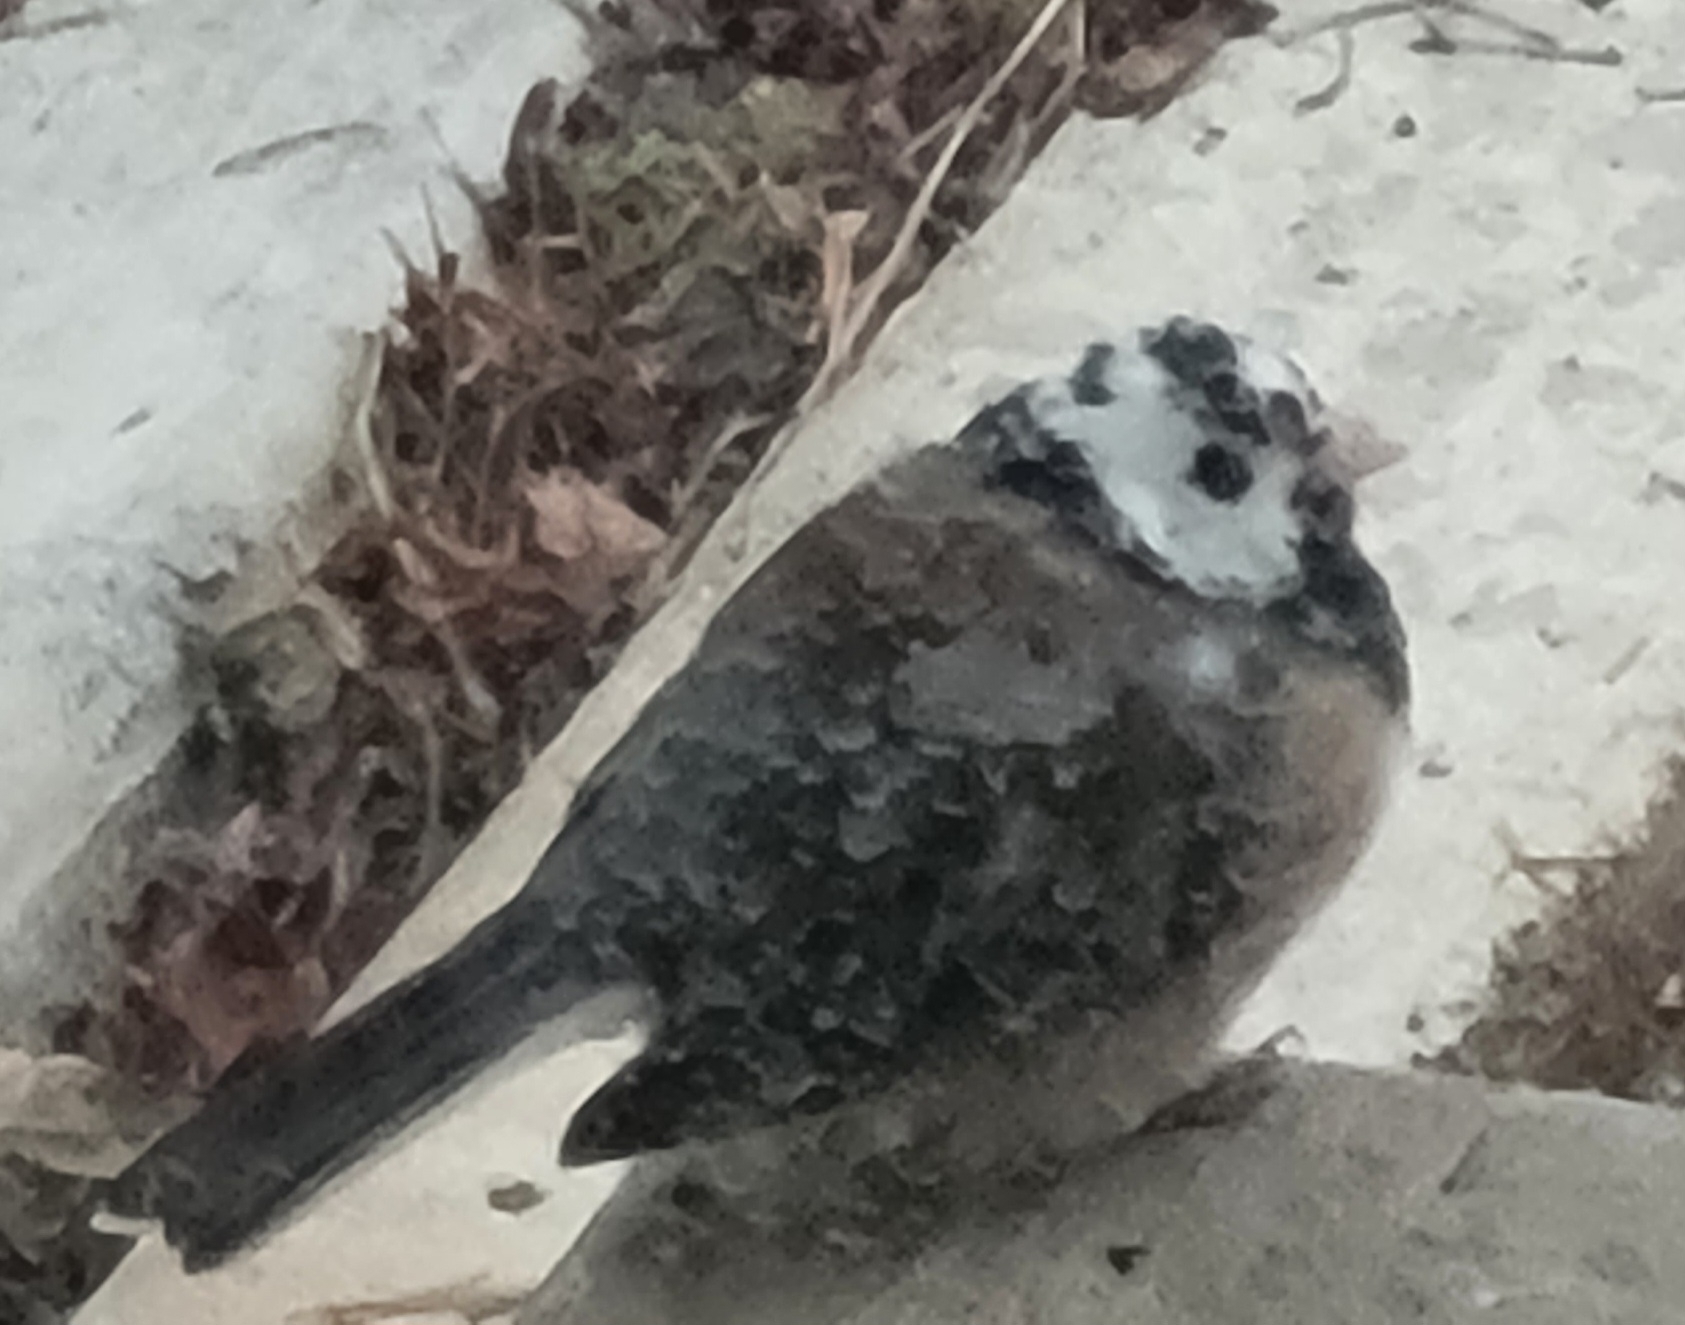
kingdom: Animalia
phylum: Chordata
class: Aves
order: Passeriformes
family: Passerellidae
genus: Junco
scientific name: Junco hyemalis
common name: Dark-eyed junco
